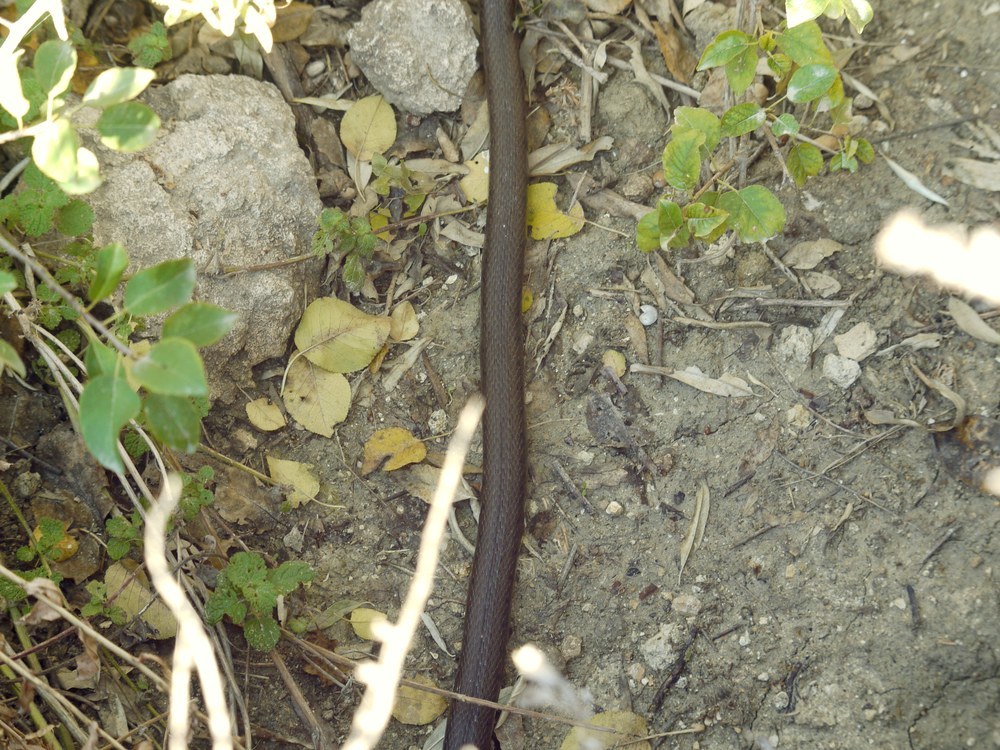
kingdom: Animalia
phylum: Chordata
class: Squamata
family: Colubridae
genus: Natrix
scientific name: Natrix natrix
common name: Grass snake
